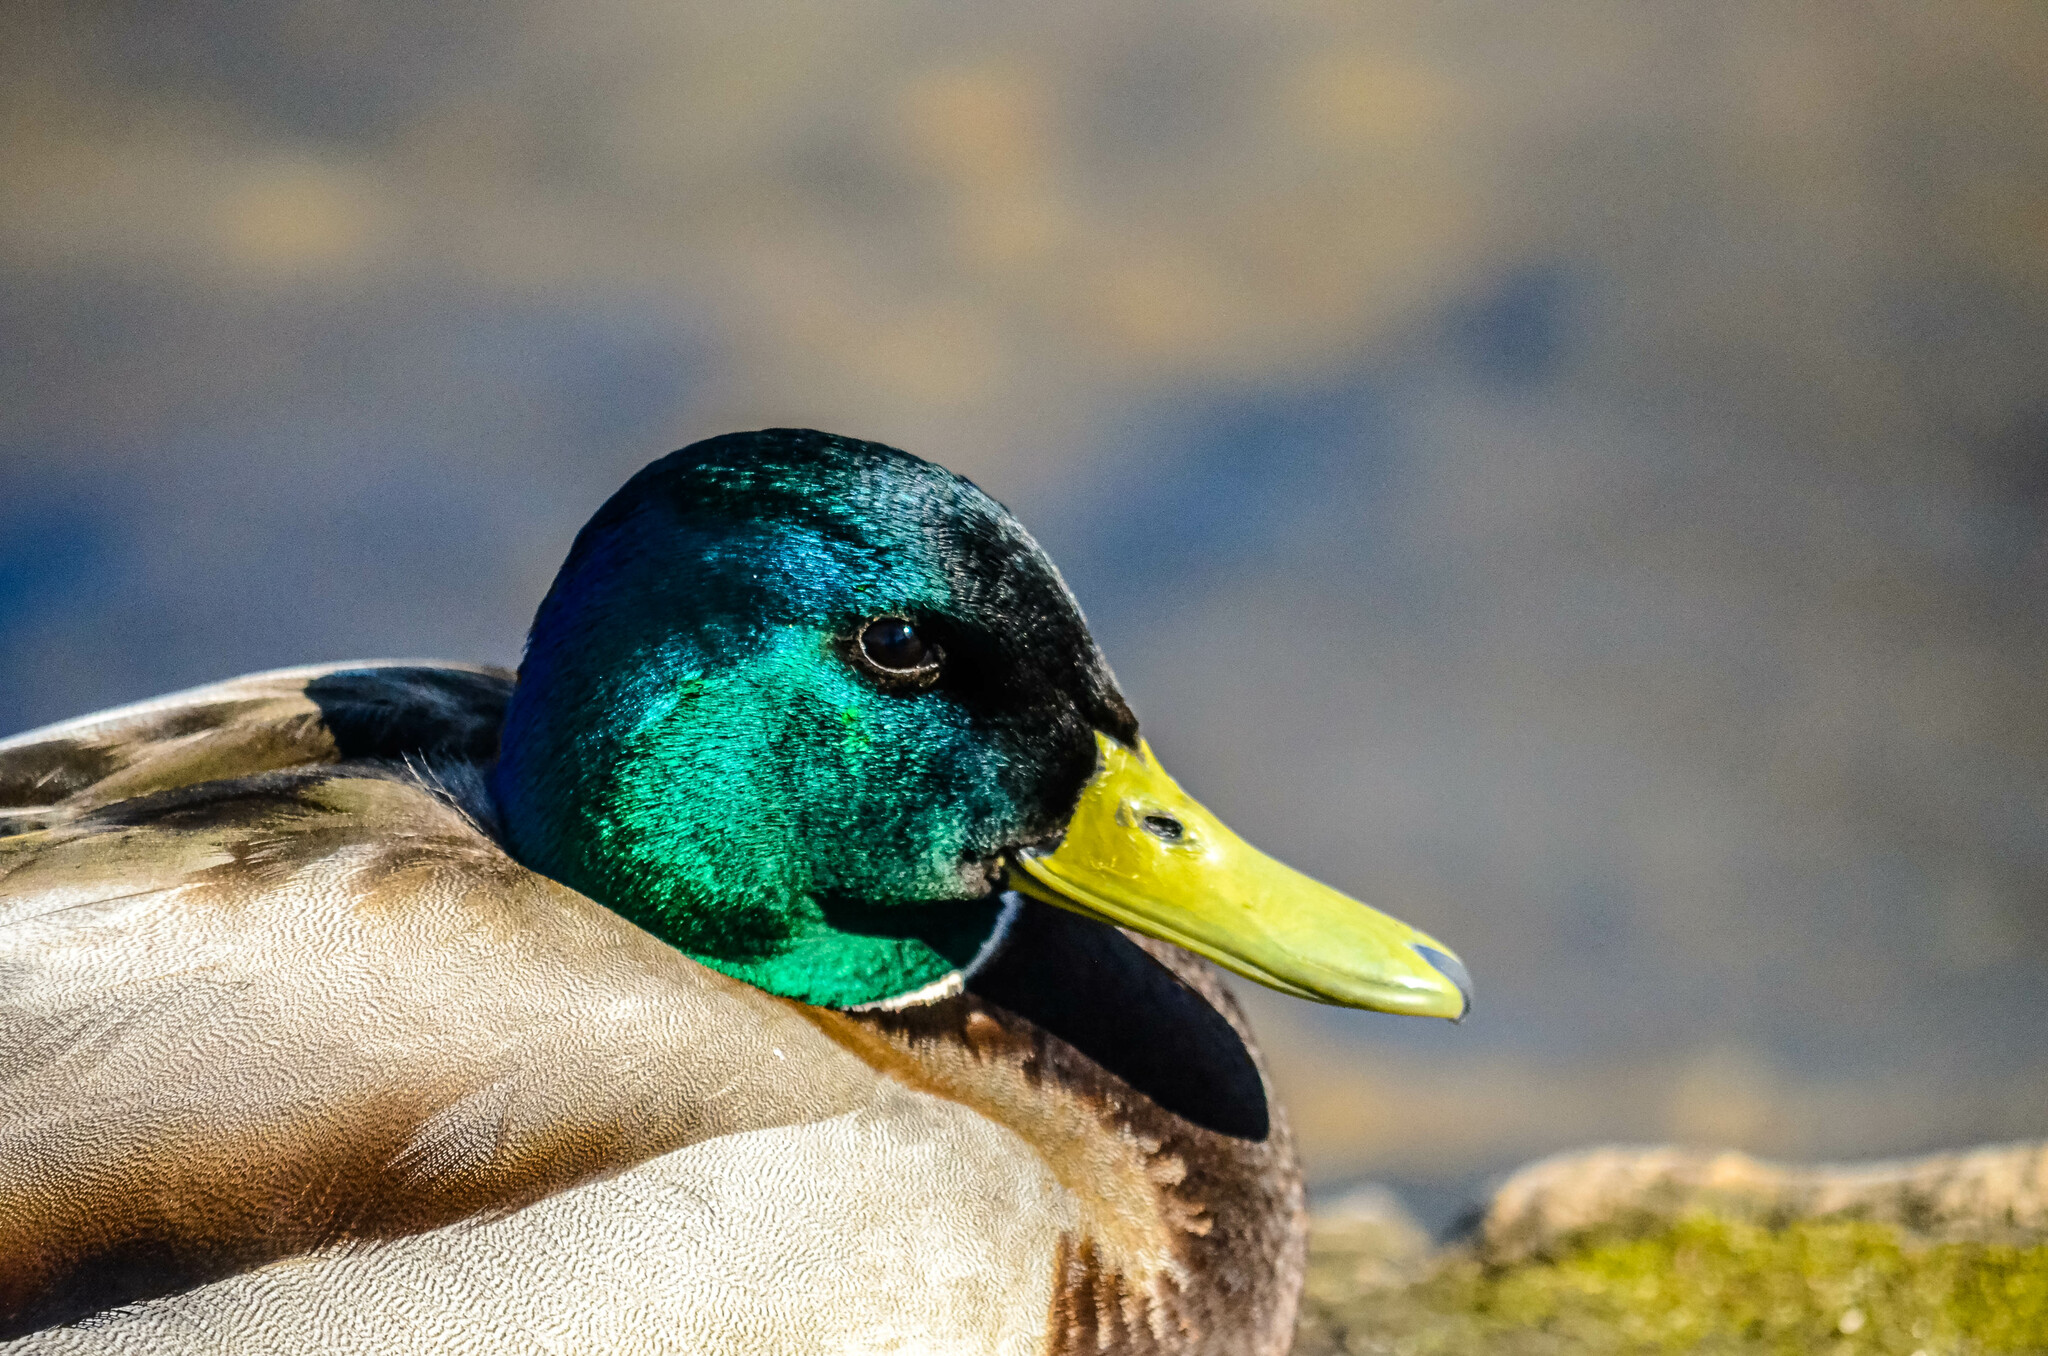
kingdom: Animalia
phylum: Chordata
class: Aves
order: Anseriformes
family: Anatidae
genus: Anas
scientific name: Anas platyrhynchos
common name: Mallard
